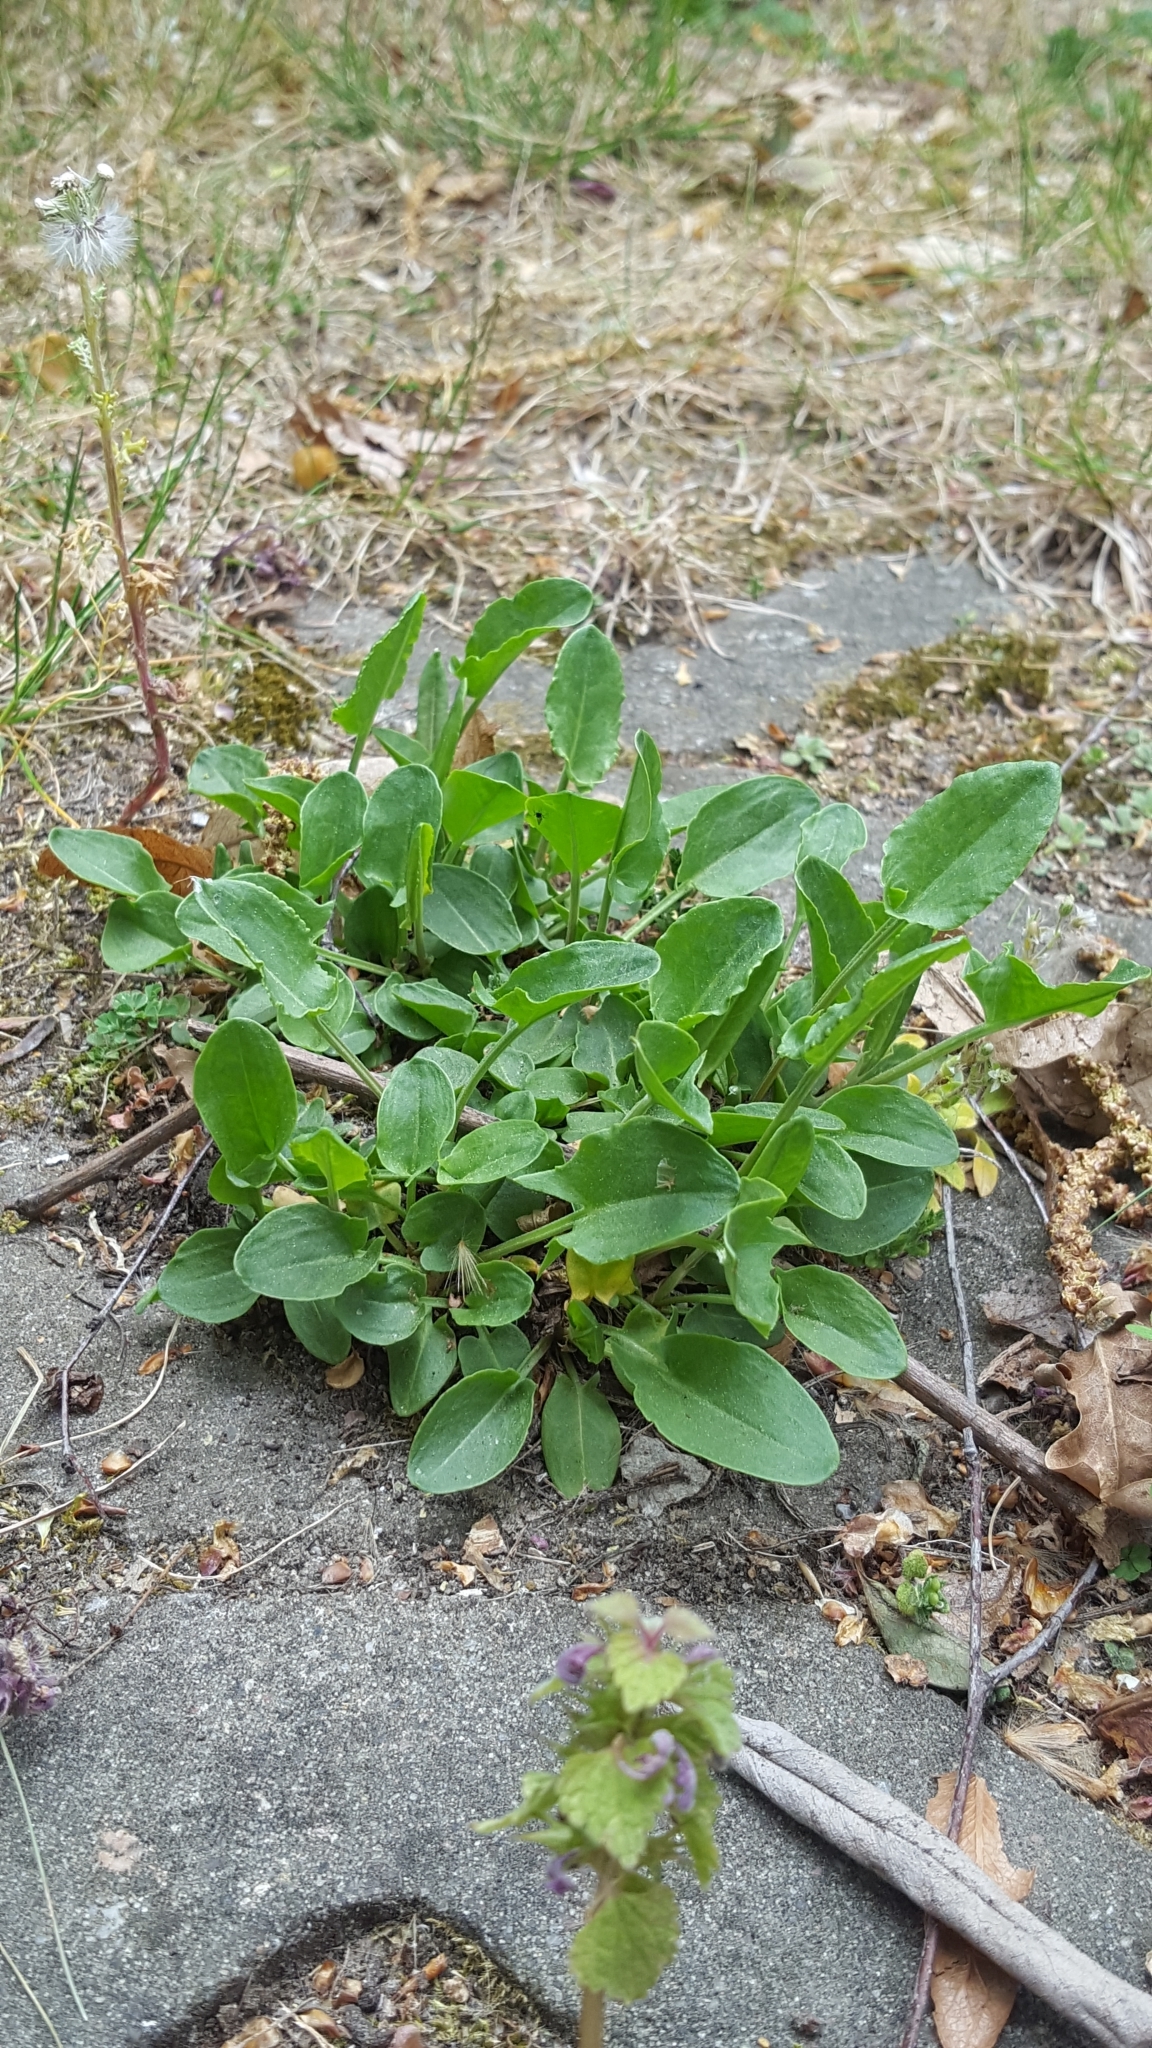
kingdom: Plantae
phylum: Tracheophyta
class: Magnoliopsida
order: Caryophyllales
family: Polygonaceae
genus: Rumex
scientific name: Rumex acetosa
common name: Garden sorrel
